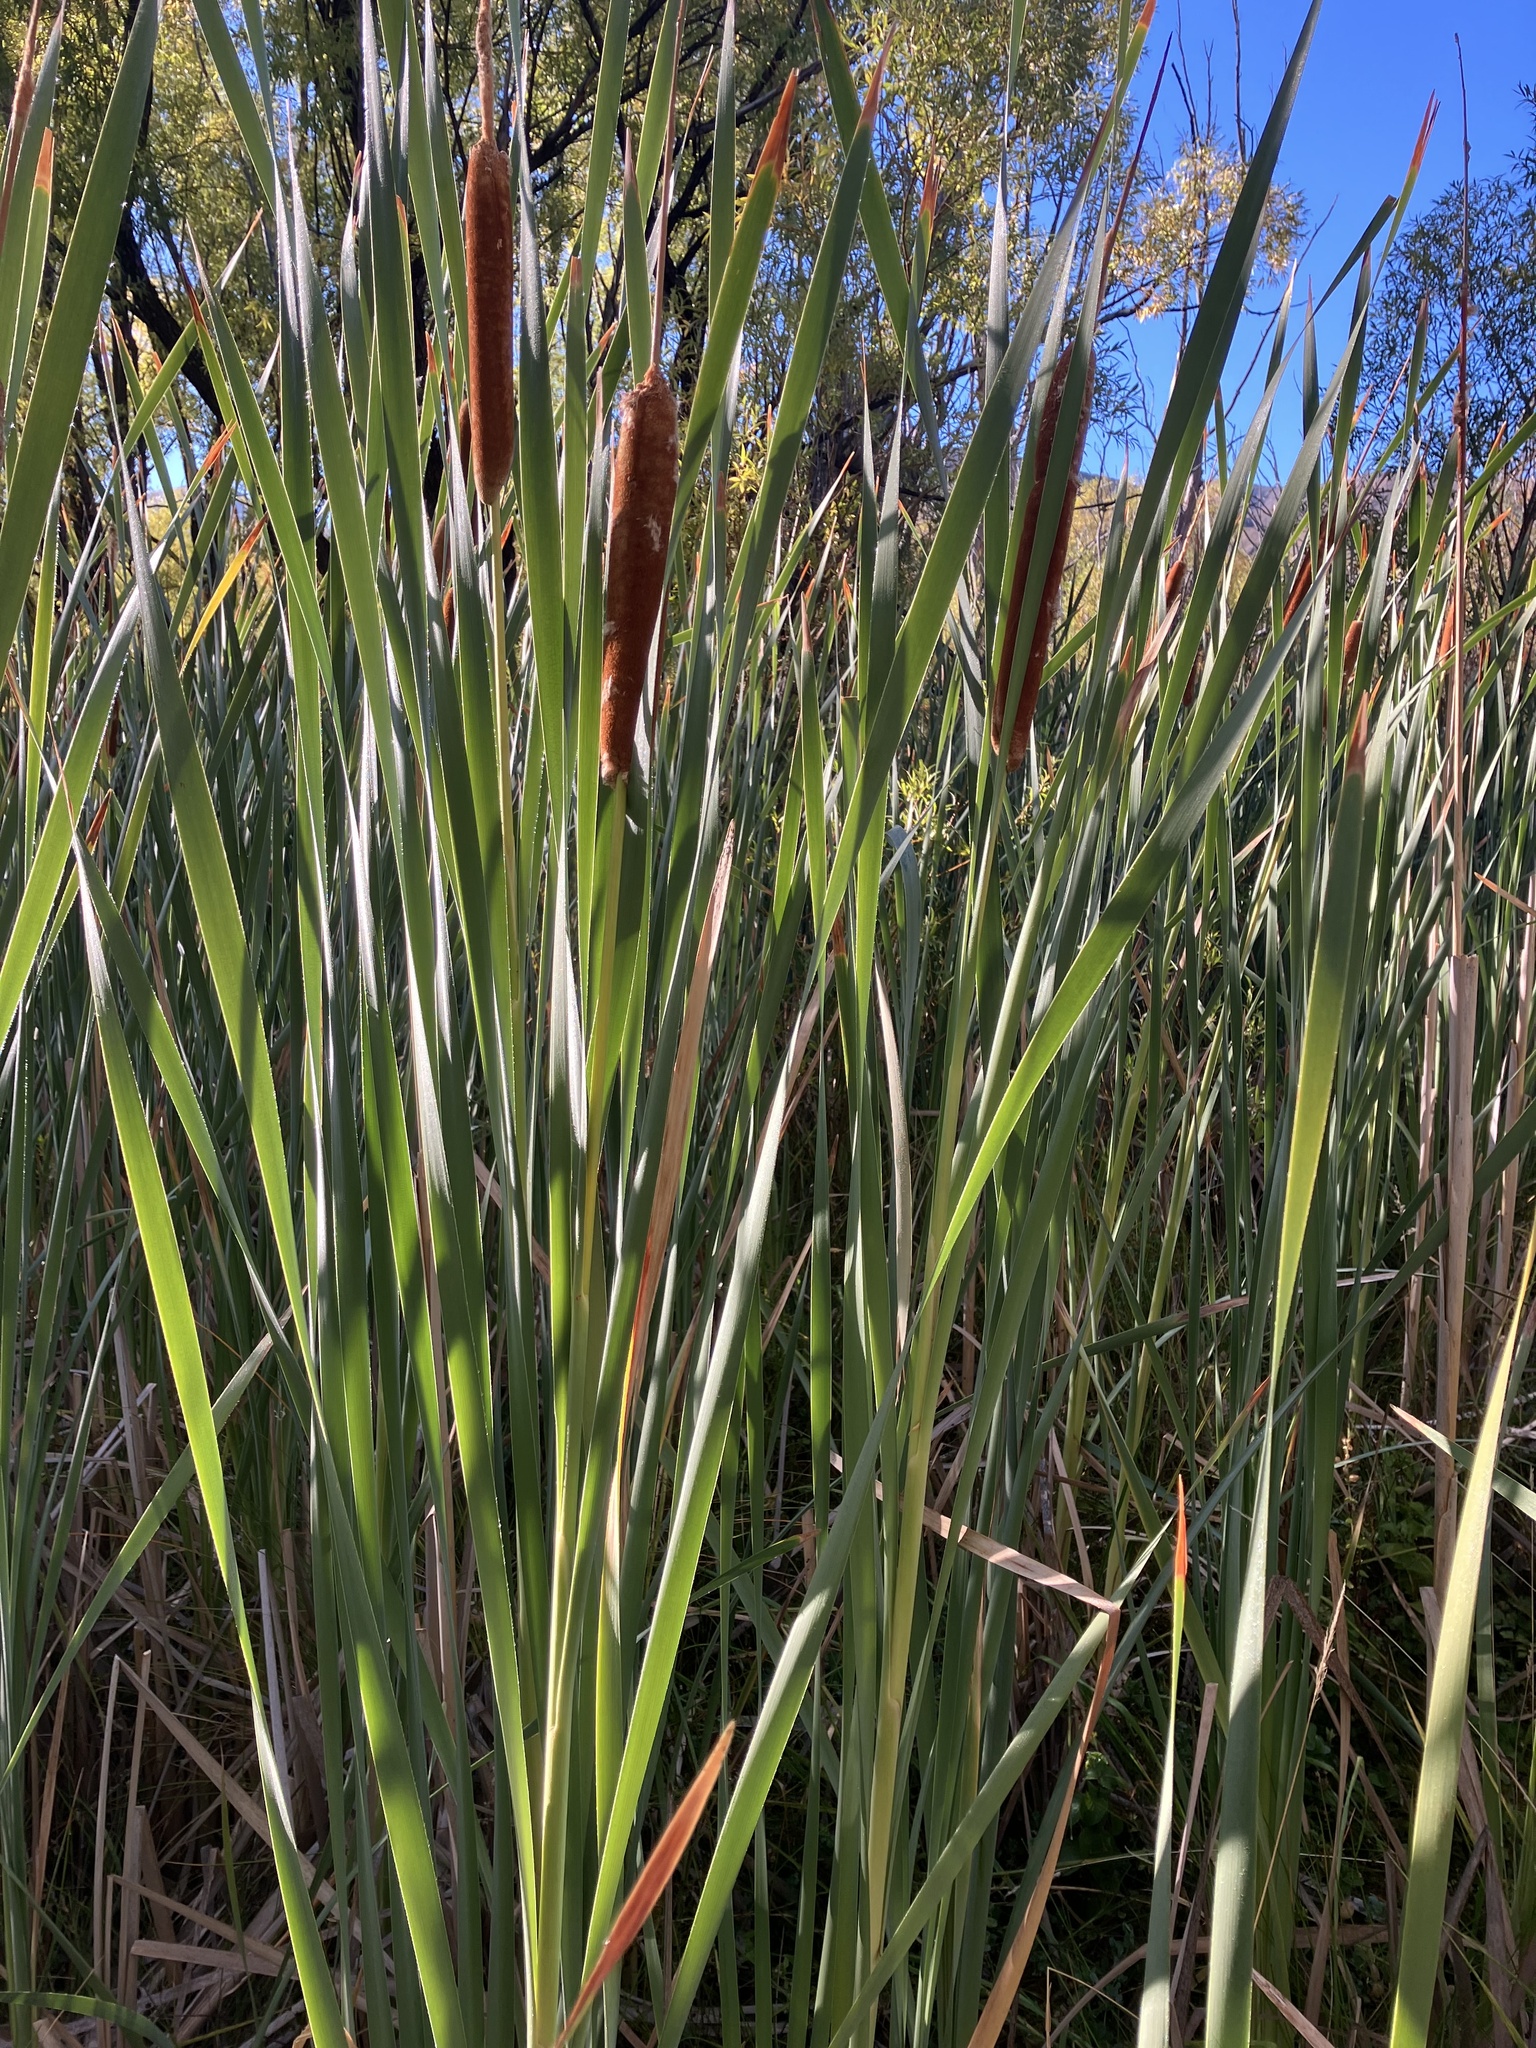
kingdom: Plantae
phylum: Tracheophyta
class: Liliopsida
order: Poales
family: Typhaceae
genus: Typha
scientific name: Typha orientalis
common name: Bullrush
